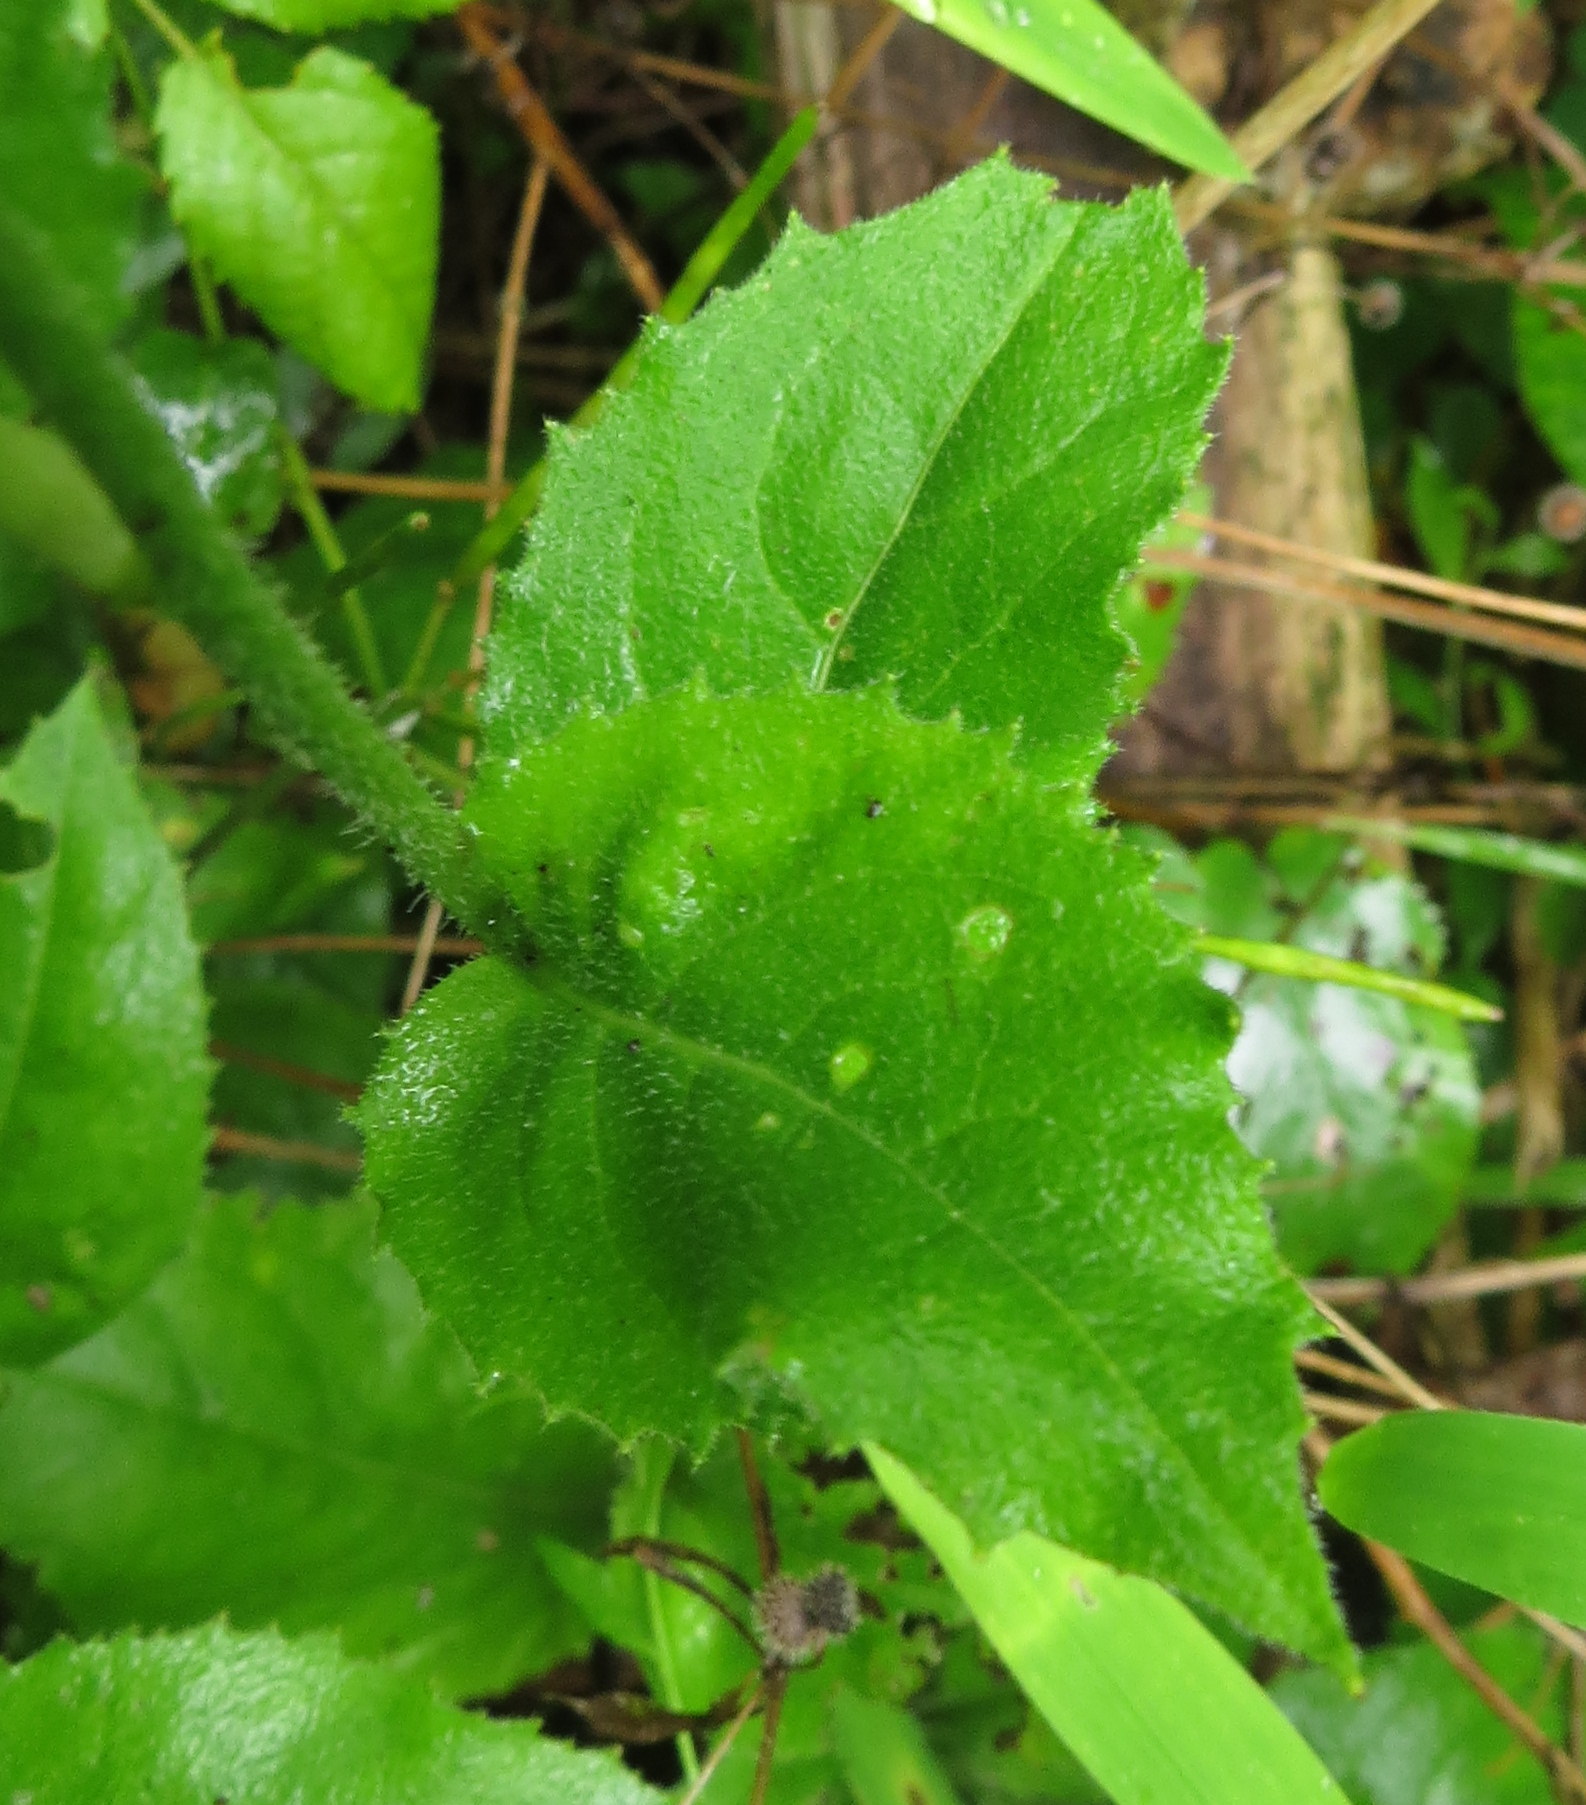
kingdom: Plantae
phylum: Tracheophyta
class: Magnoliopsida
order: Brassicales
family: Brassicaceae
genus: Hesperis
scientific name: Hesperis matronalis
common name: Dame's-violet
